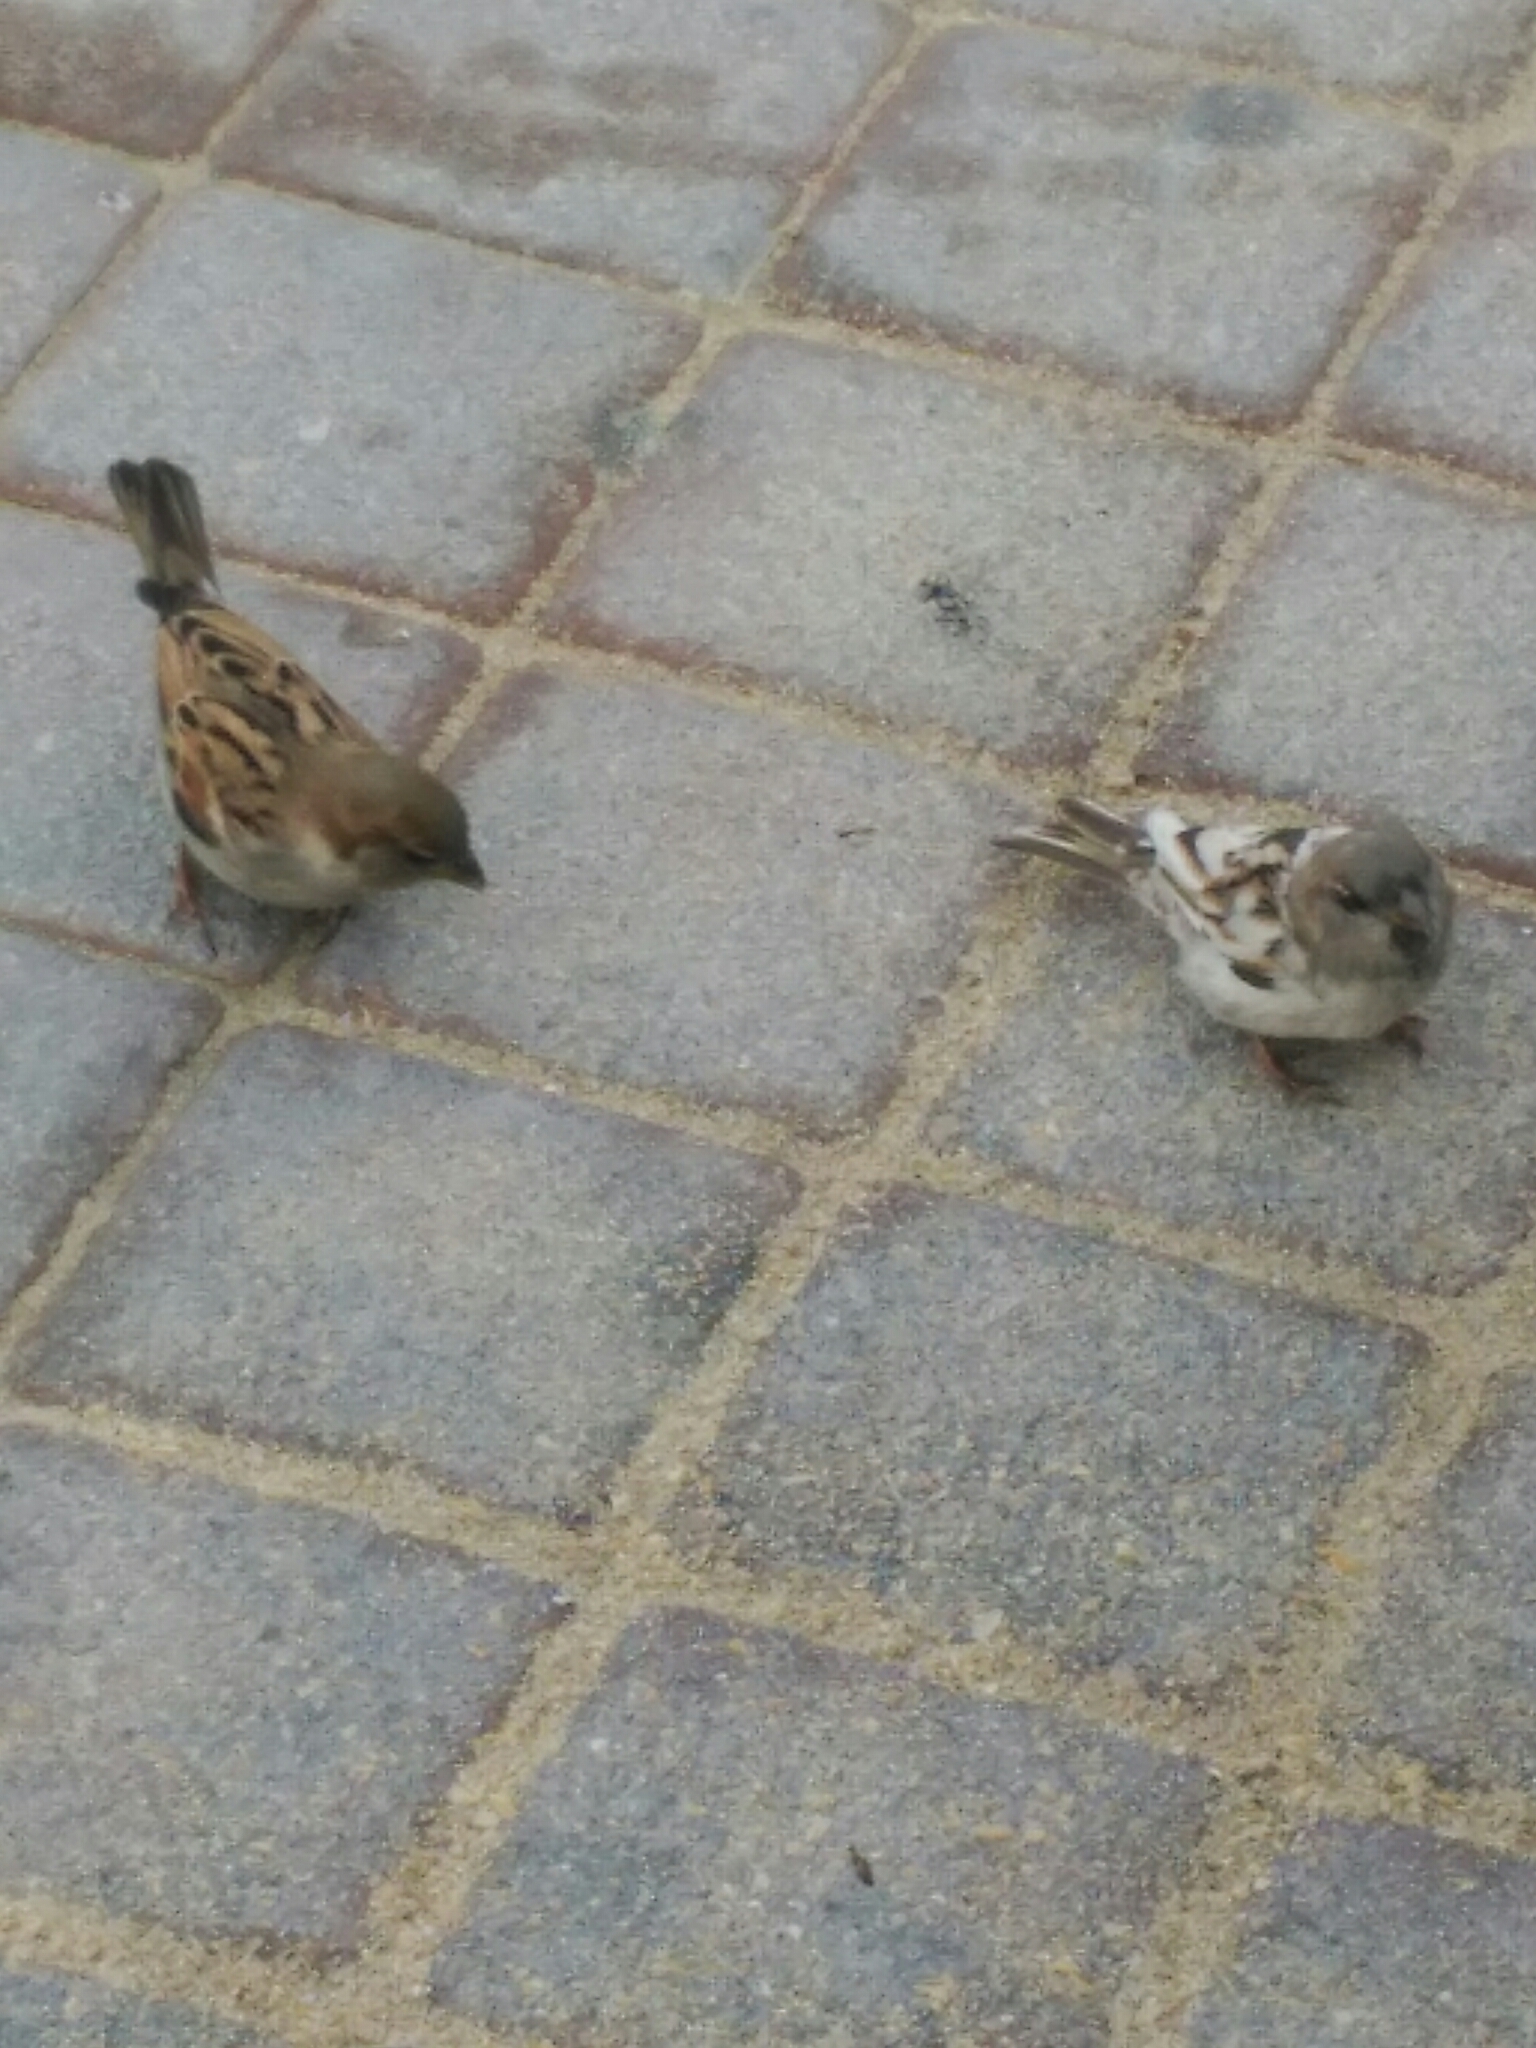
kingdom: Animalia
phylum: Chordata
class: Aves
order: Passeriformes
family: Passeridae
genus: Passer
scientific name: Passer domesticus
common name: House sparrow
